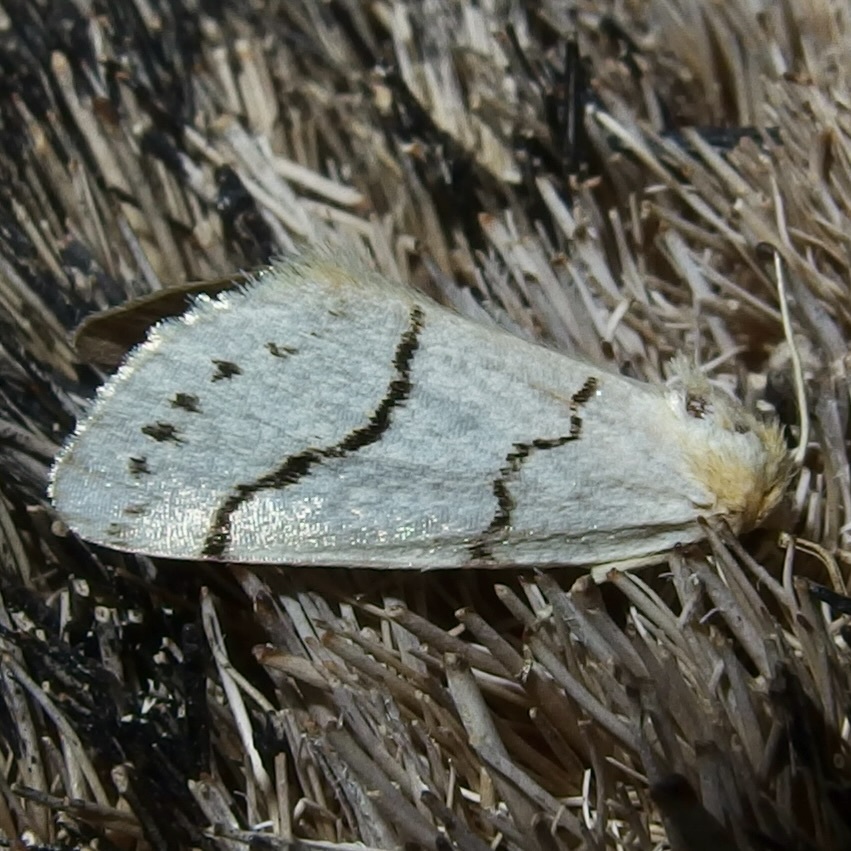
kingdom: Animalia
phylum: Arthropoda
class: Insecta
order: Lepidoptera
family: Noctuidae
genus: Lineostriastiria
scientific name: Lineostriastiria sexseriata
